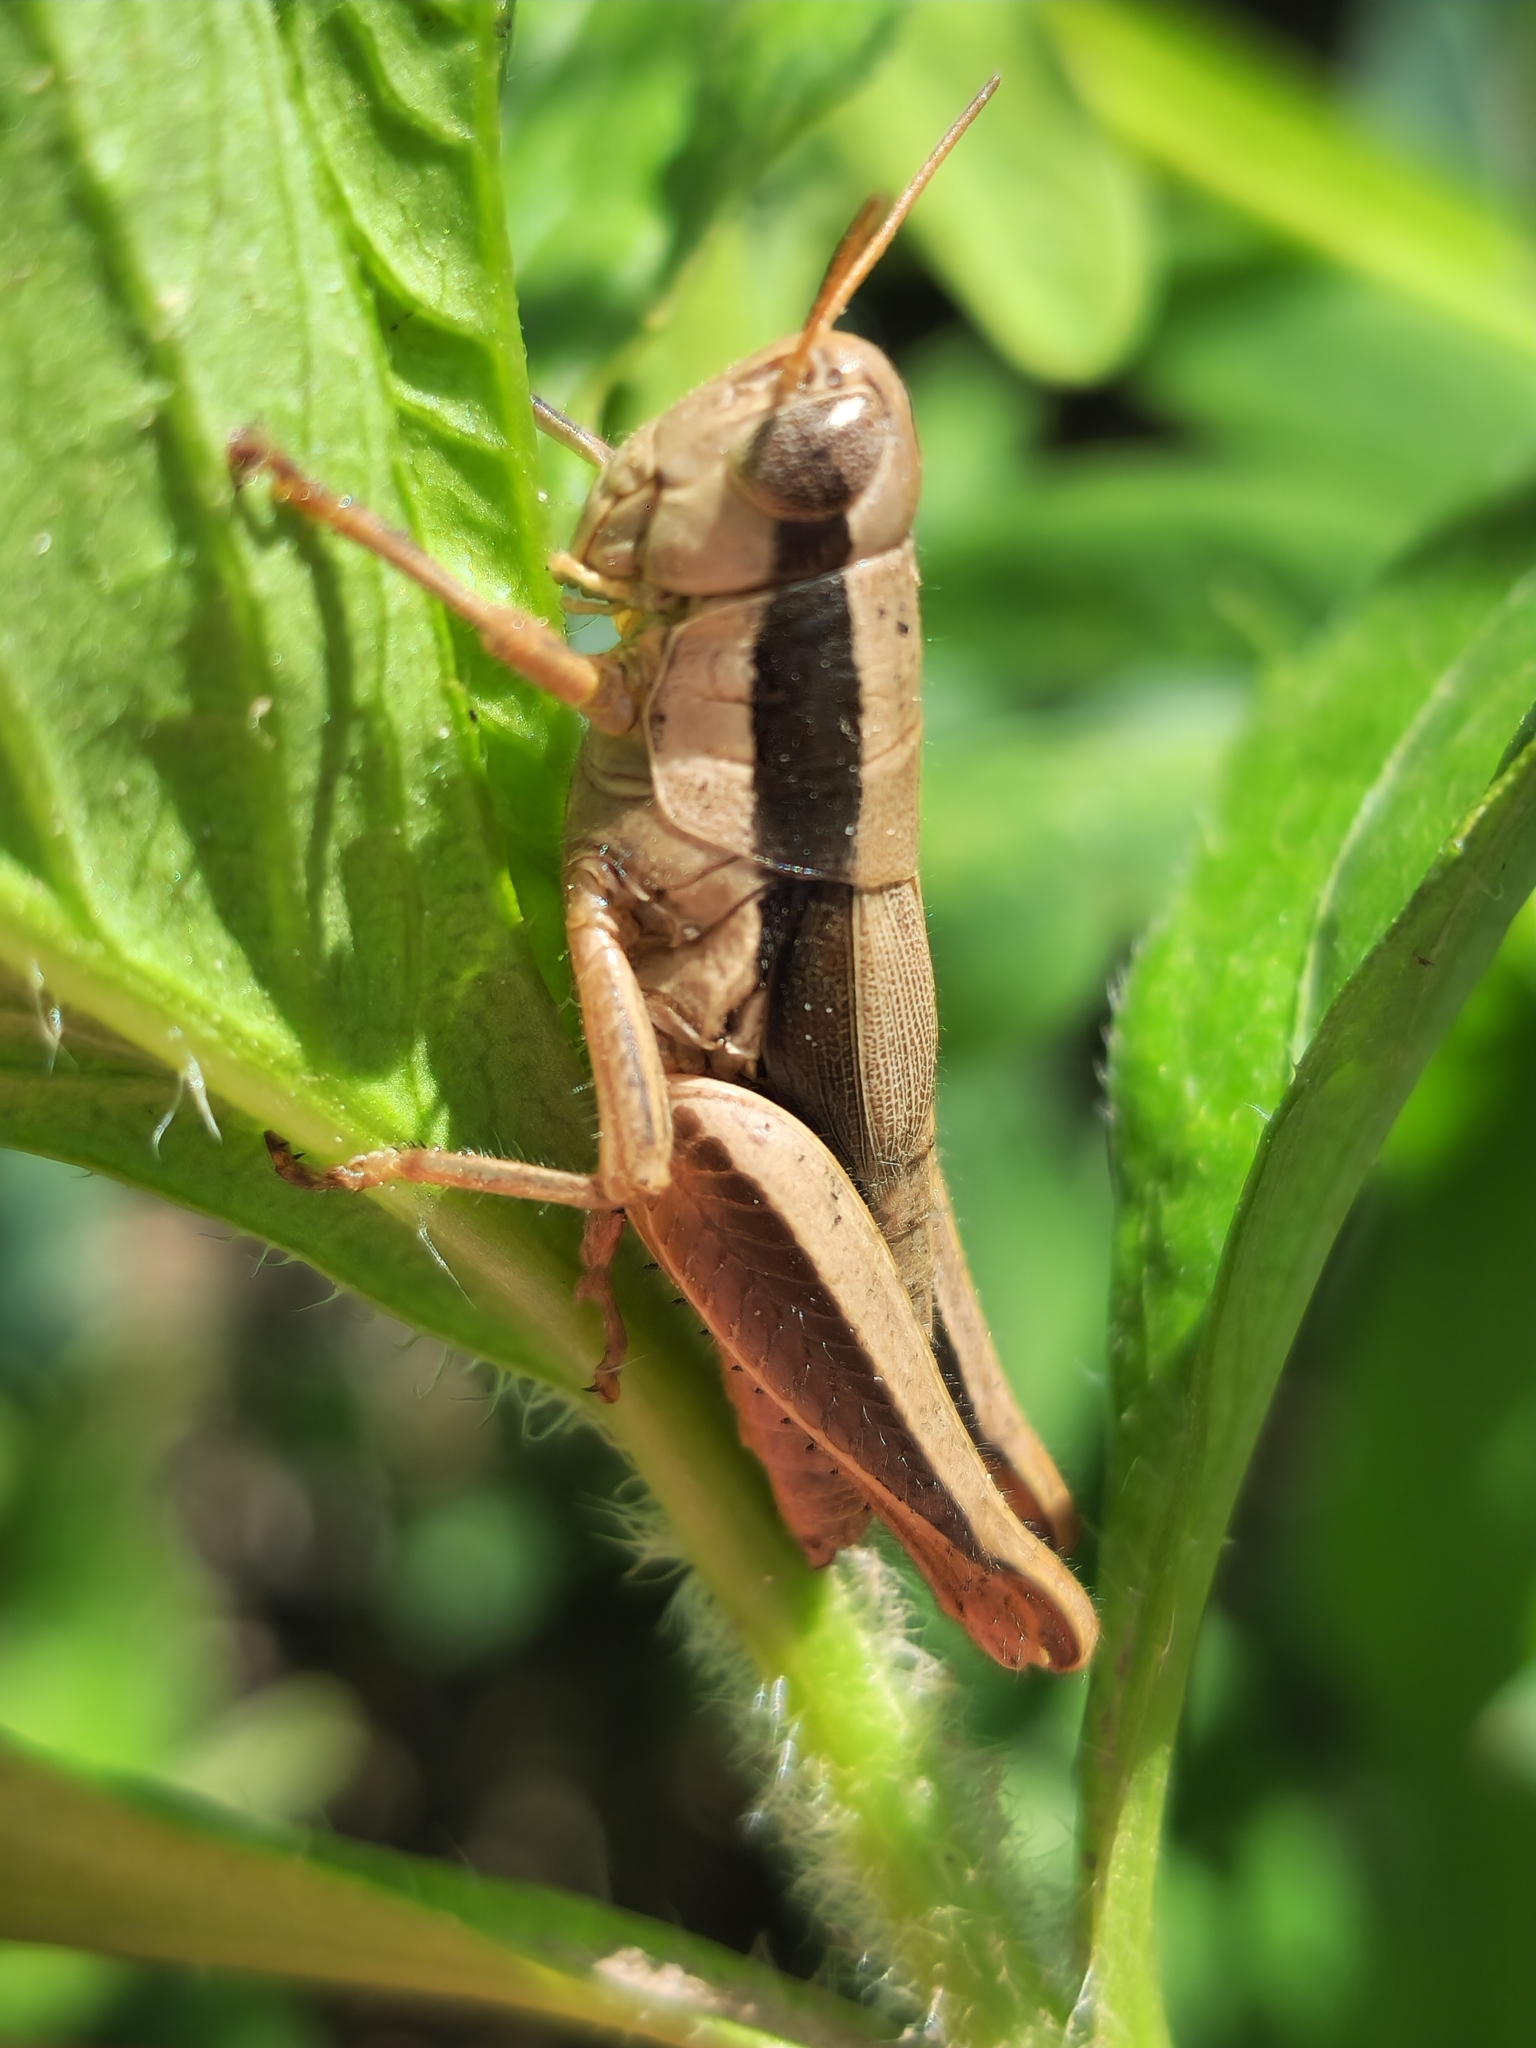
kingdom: Animalia
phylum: Arthropoda
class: Insecta
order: Orthoptera
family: Acrididae
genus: Scotussa
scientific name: Scotussa brachyptera
